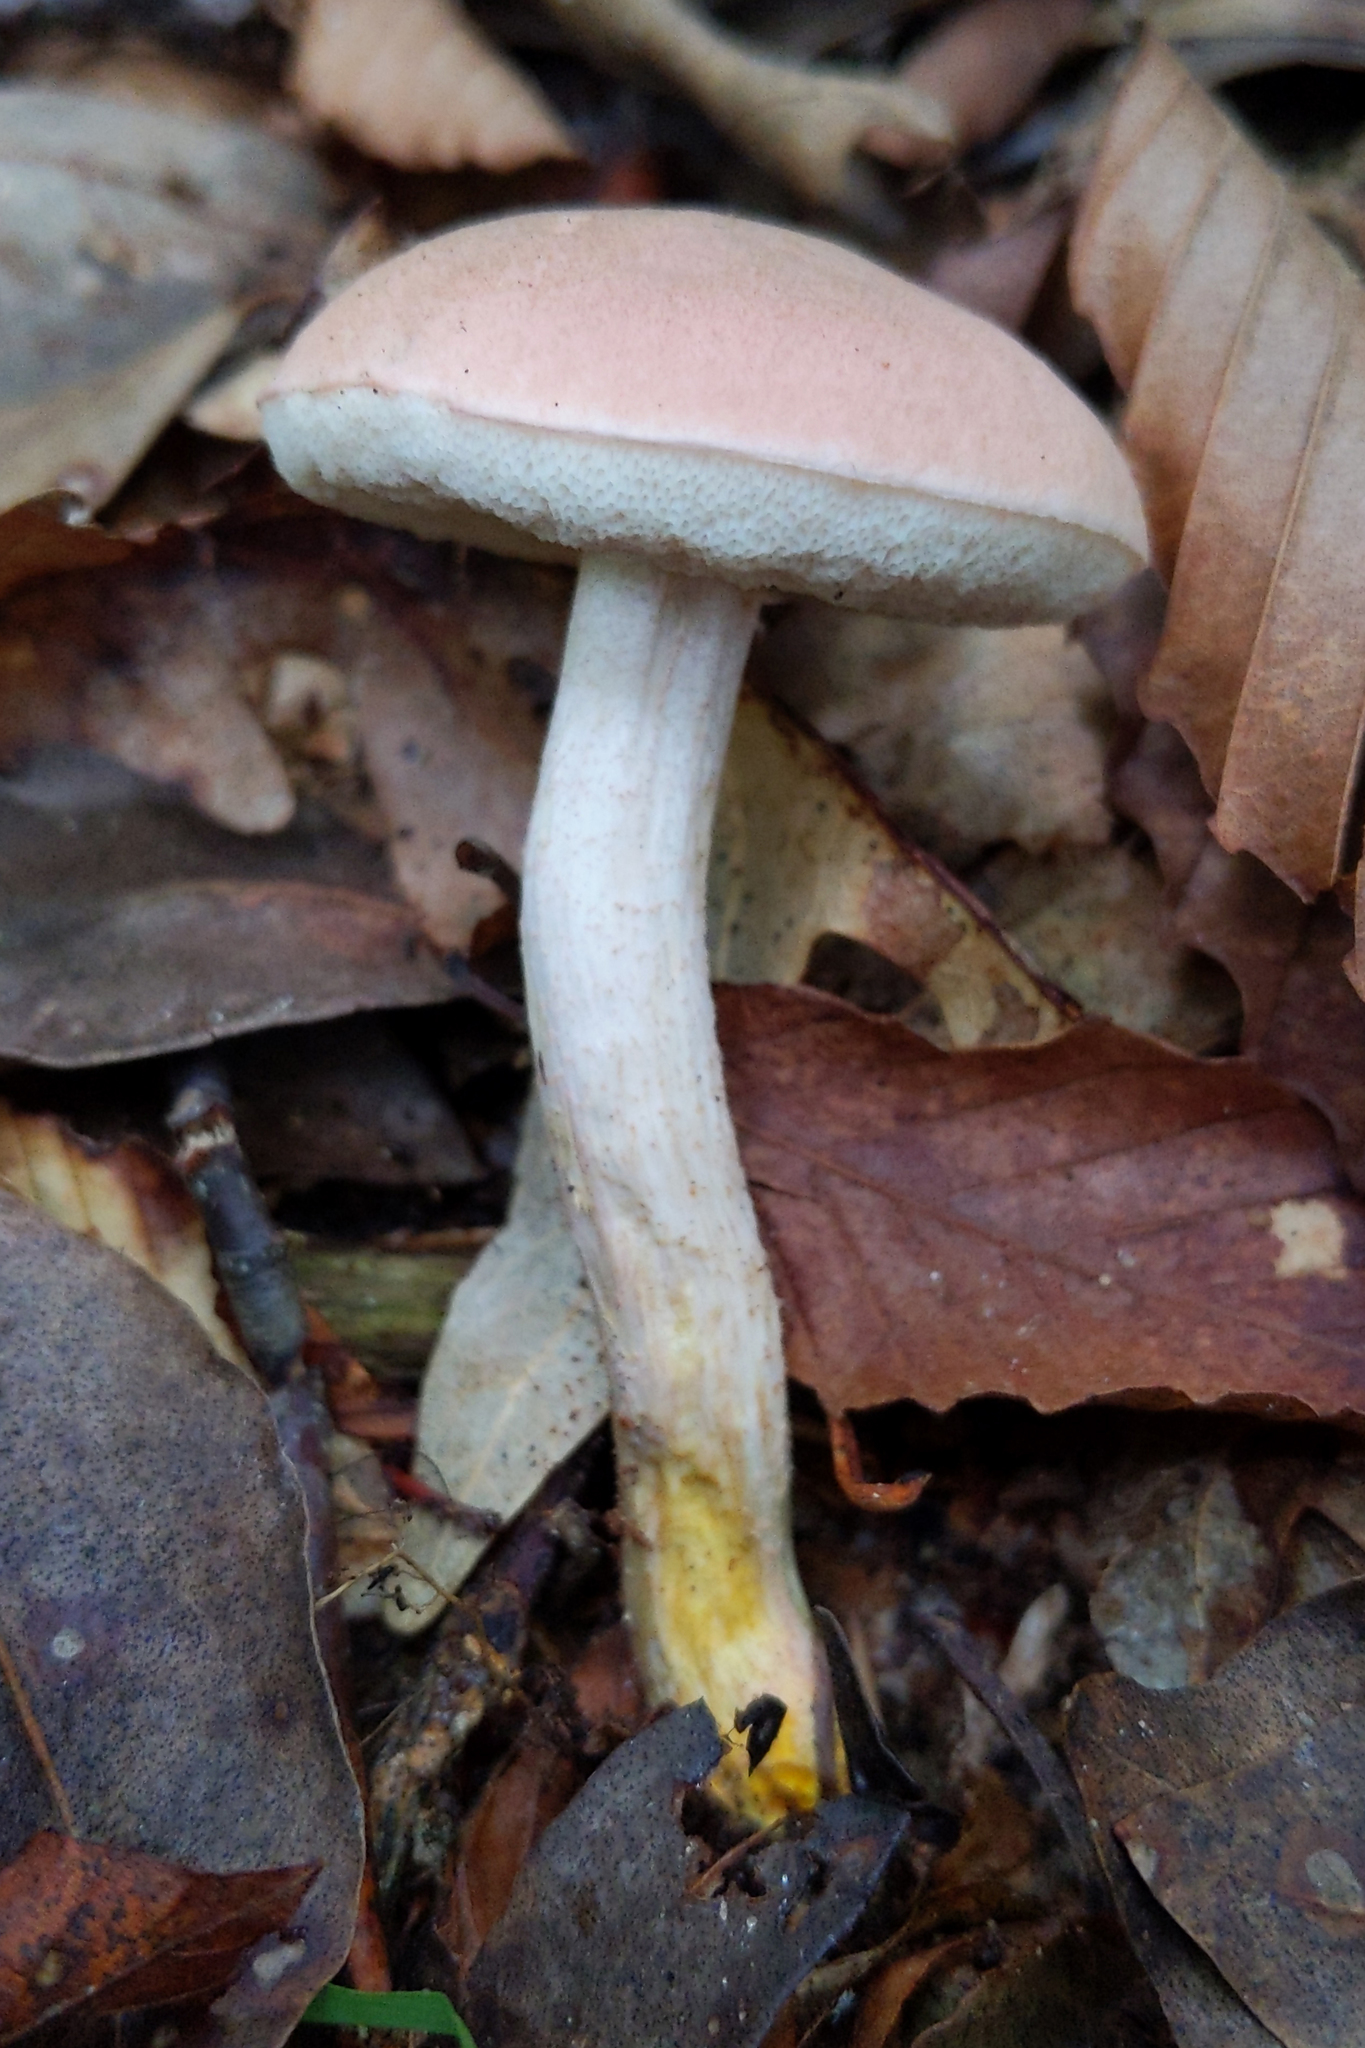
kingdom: Fungi
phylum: Basidiomycota
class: Agaricomycetes
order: Boletales
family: Boletaceae
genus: Harrya
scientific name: Harrya chromipes
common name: Chrome-footed bolete
